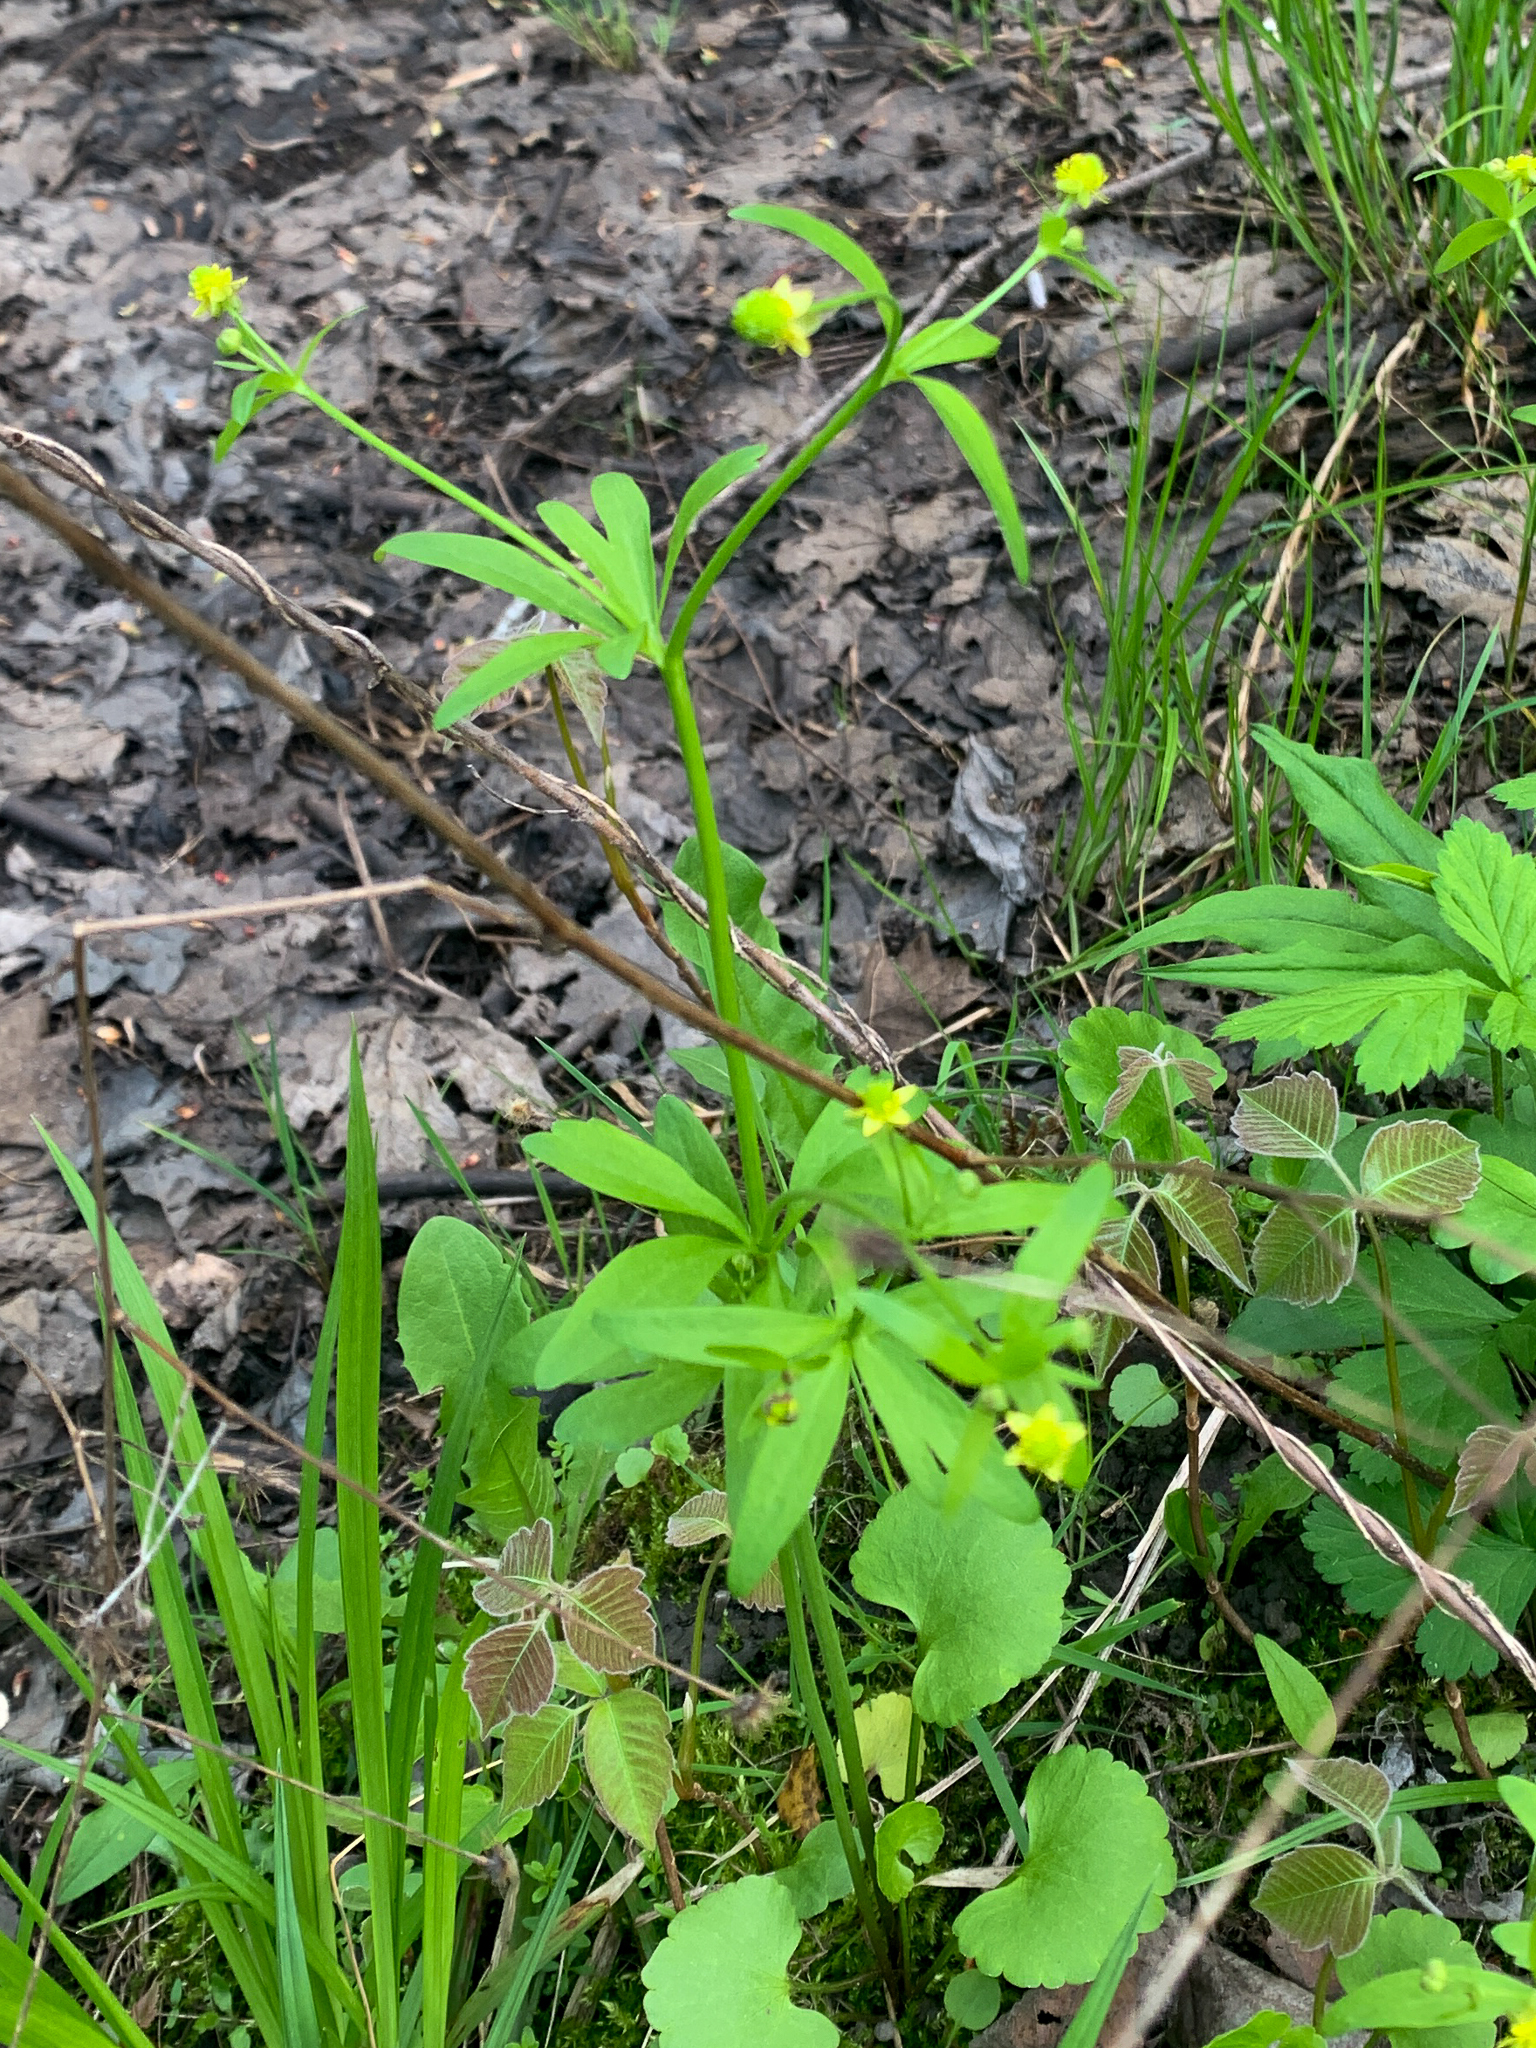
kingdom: Plantae
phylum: Tracheophyta
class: Magnoliopsida
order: Ranunculales
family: Ranunculaceae
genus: Ranunculus
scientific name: Ranunculus abortivus
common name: Early wood buttercup
